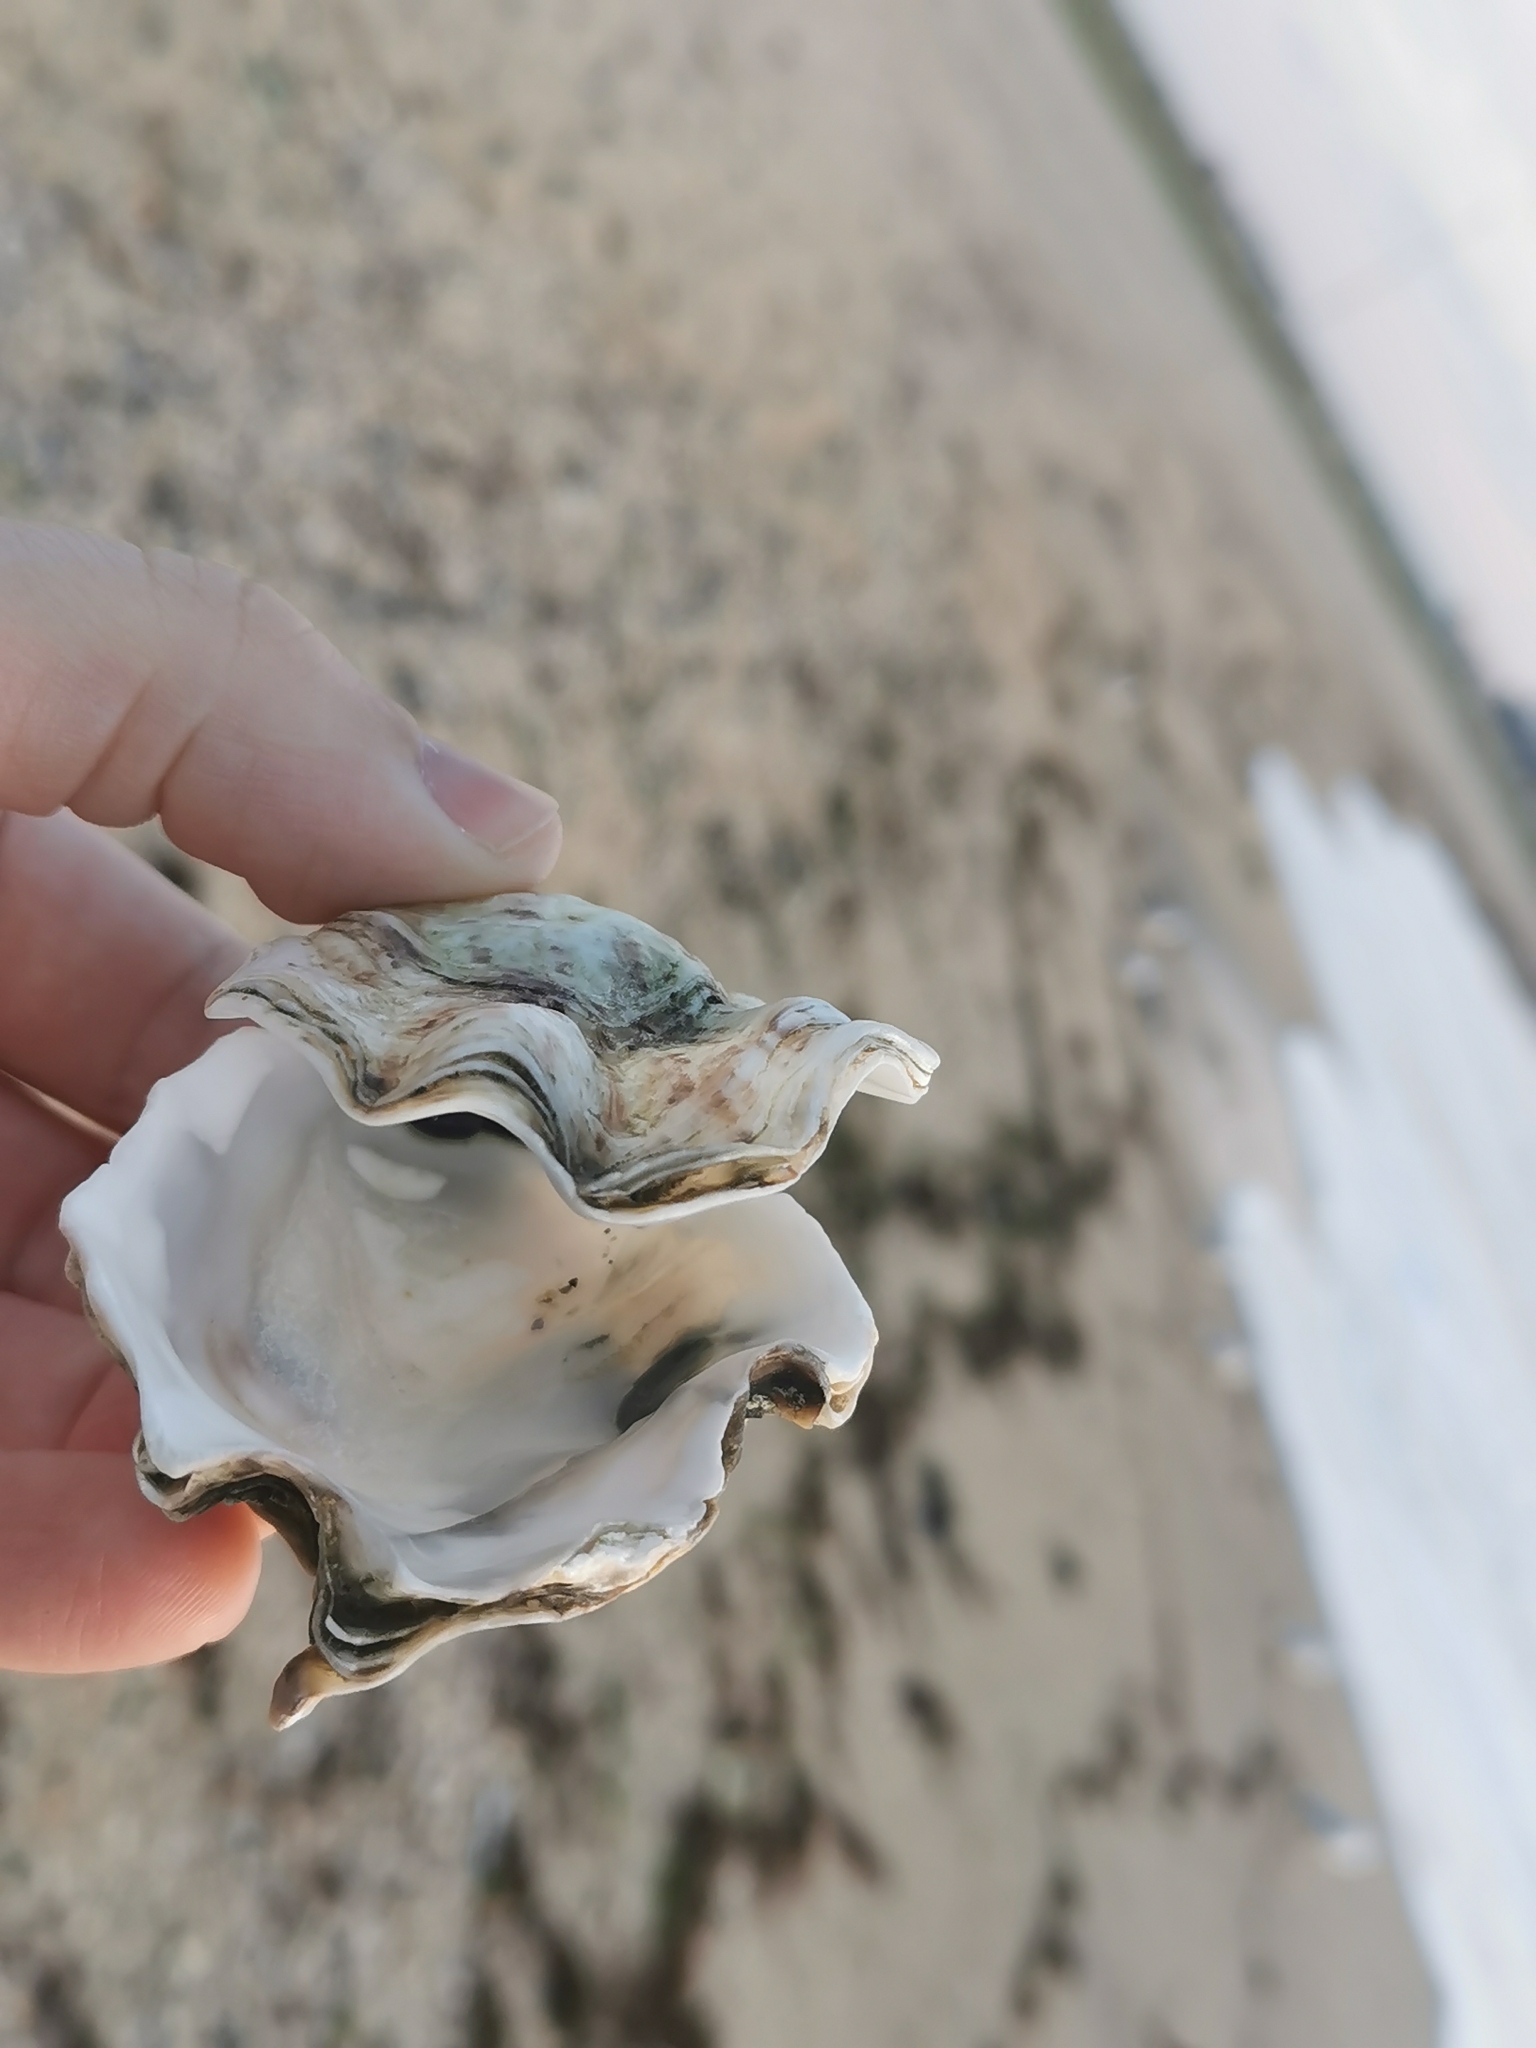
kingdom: Animalia
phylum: Mollusca
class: Bivalvia
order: Ostreida
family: Ostreidae
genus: Magallana
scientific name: Magallana gigas
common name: Pacific oyster
